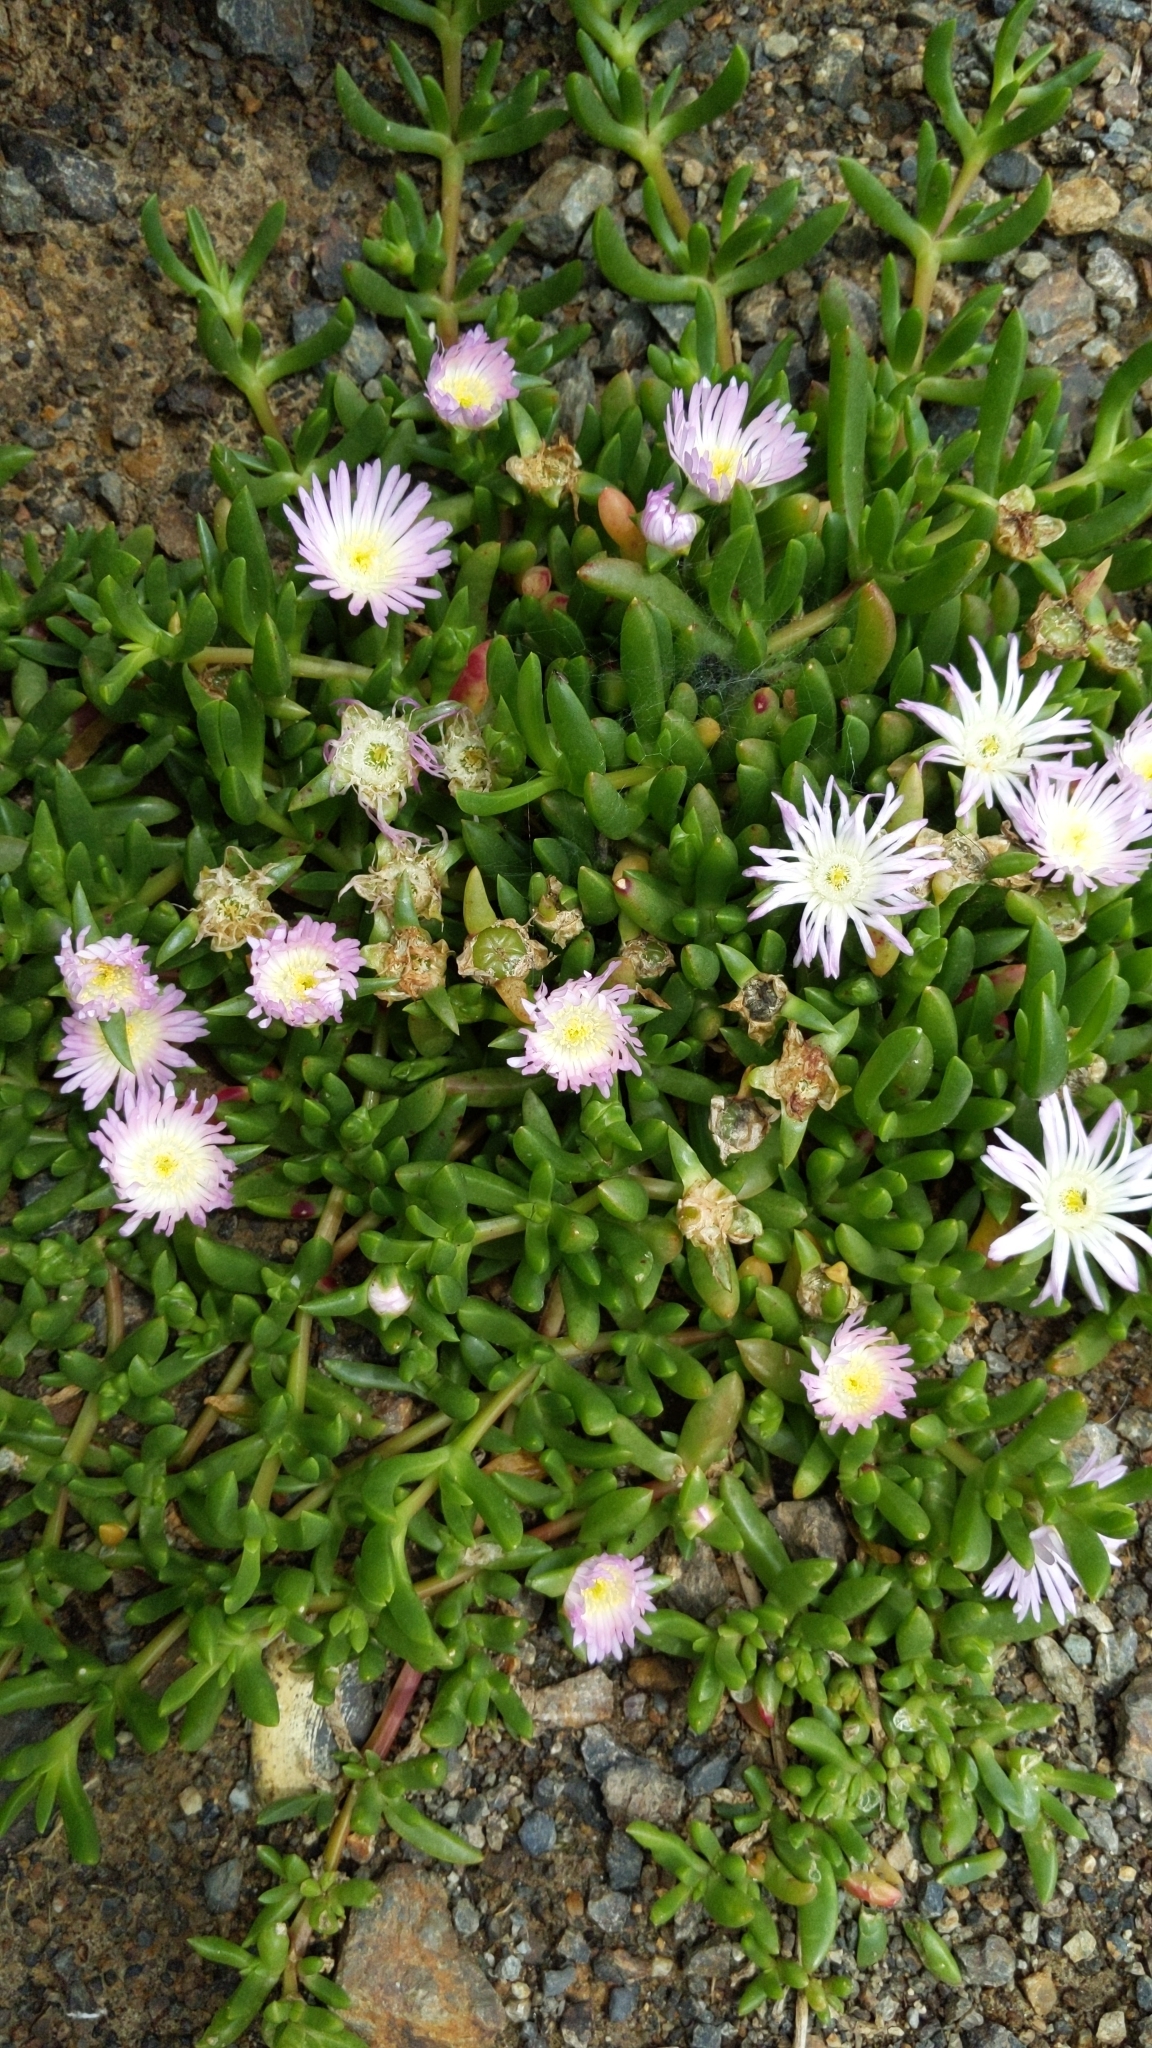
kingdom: Plantae
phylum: Tracheophyta
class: Magnoliopsida
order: Caryophyllales
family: Aizoaceae
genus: Disphyma
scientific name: Disphyma australe
